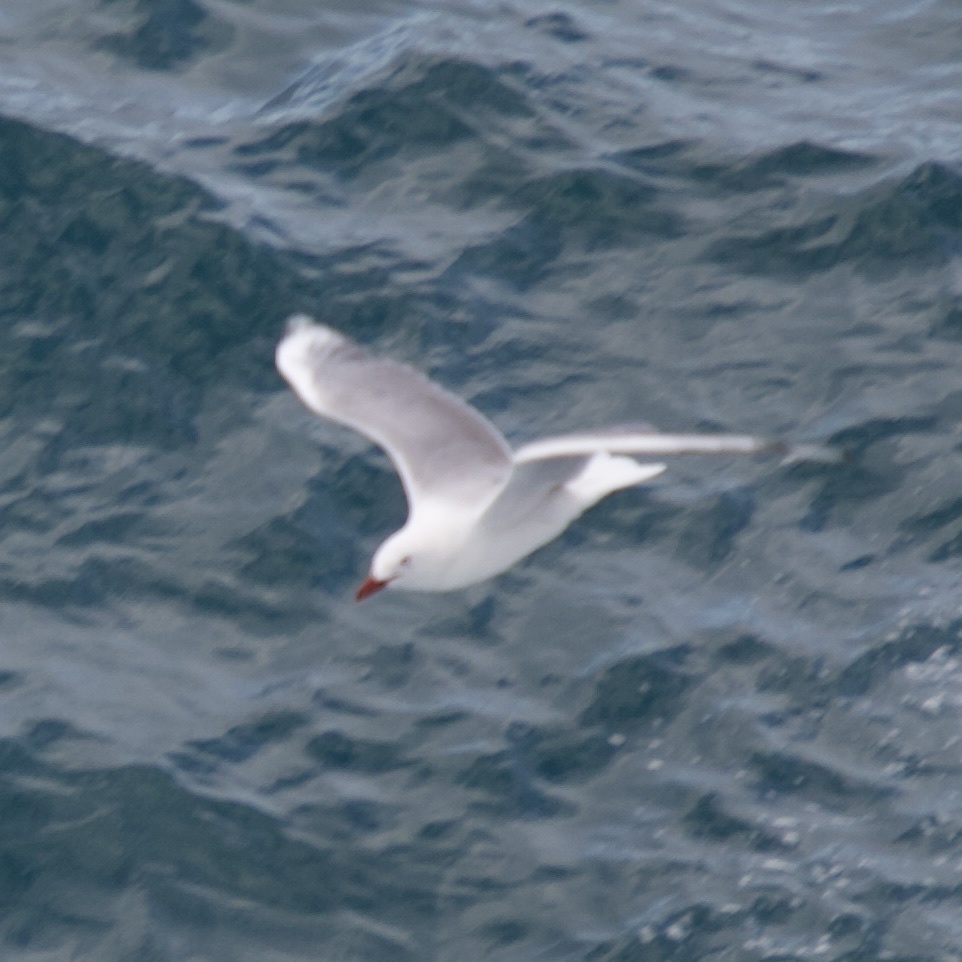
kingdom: Animalia
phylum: Chordata
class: Aves
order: Charadriiformes
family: Laridae
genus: Chroicocephalus
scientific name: Chroicocephalus novaehollandiae
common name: Silver gull
